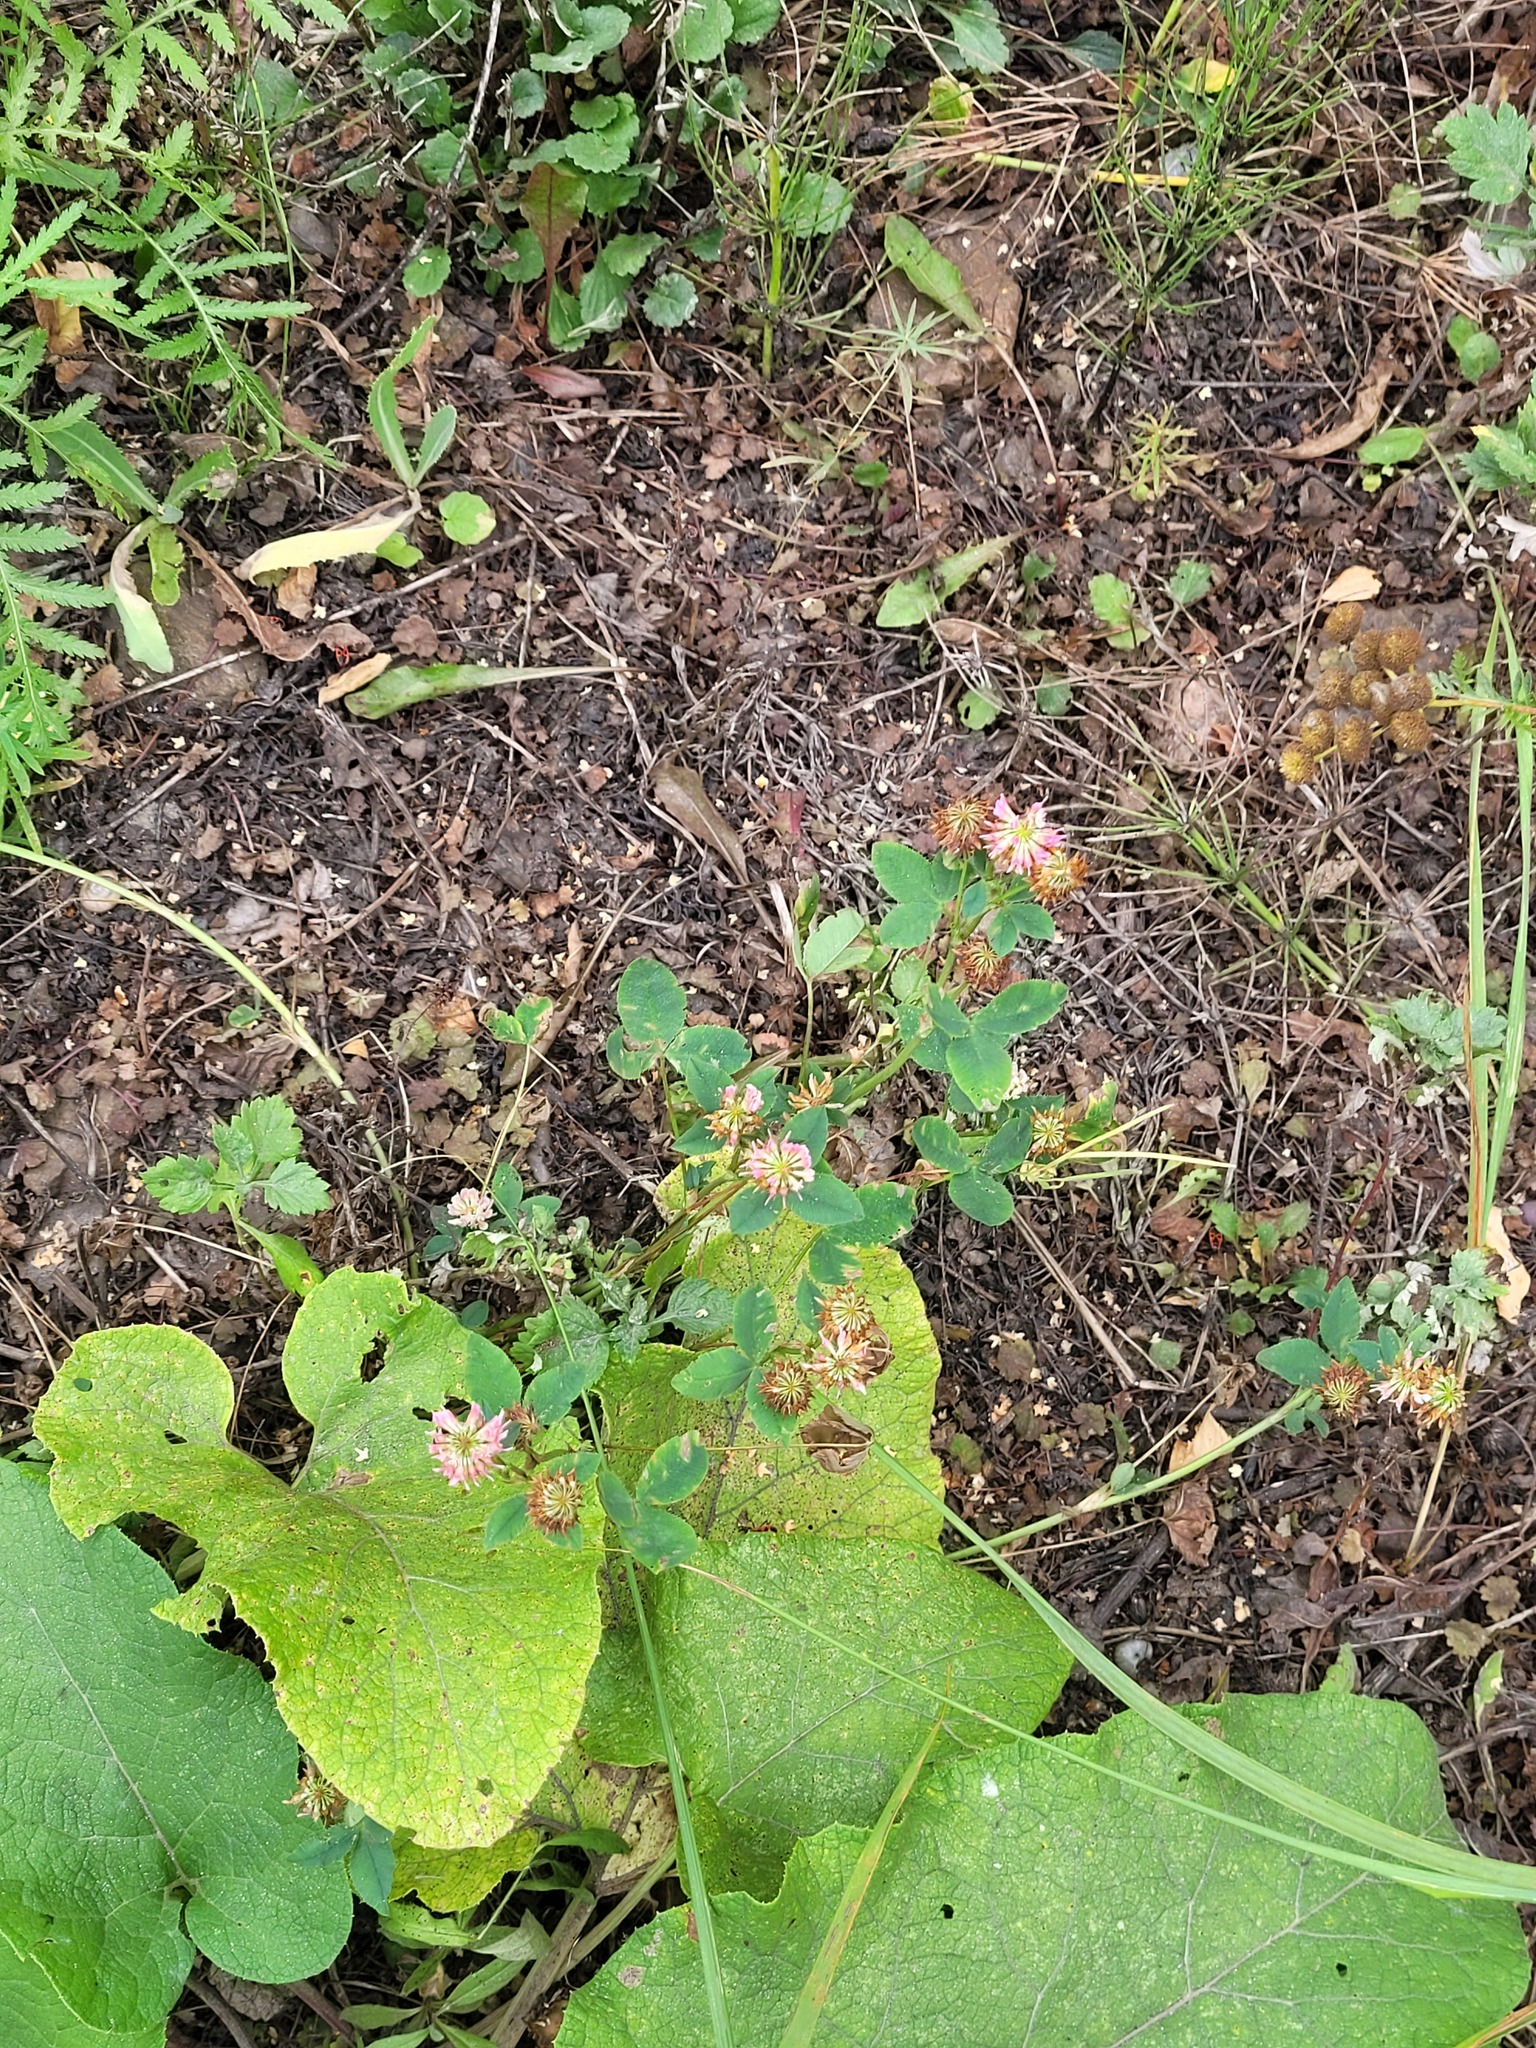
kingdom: Plantae
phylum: Tracheophyta
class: Magnoliopsida
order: Fabales
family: Fabaceae
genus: Trifolium
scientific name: Trifolium hybridum
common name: Alsike clover
